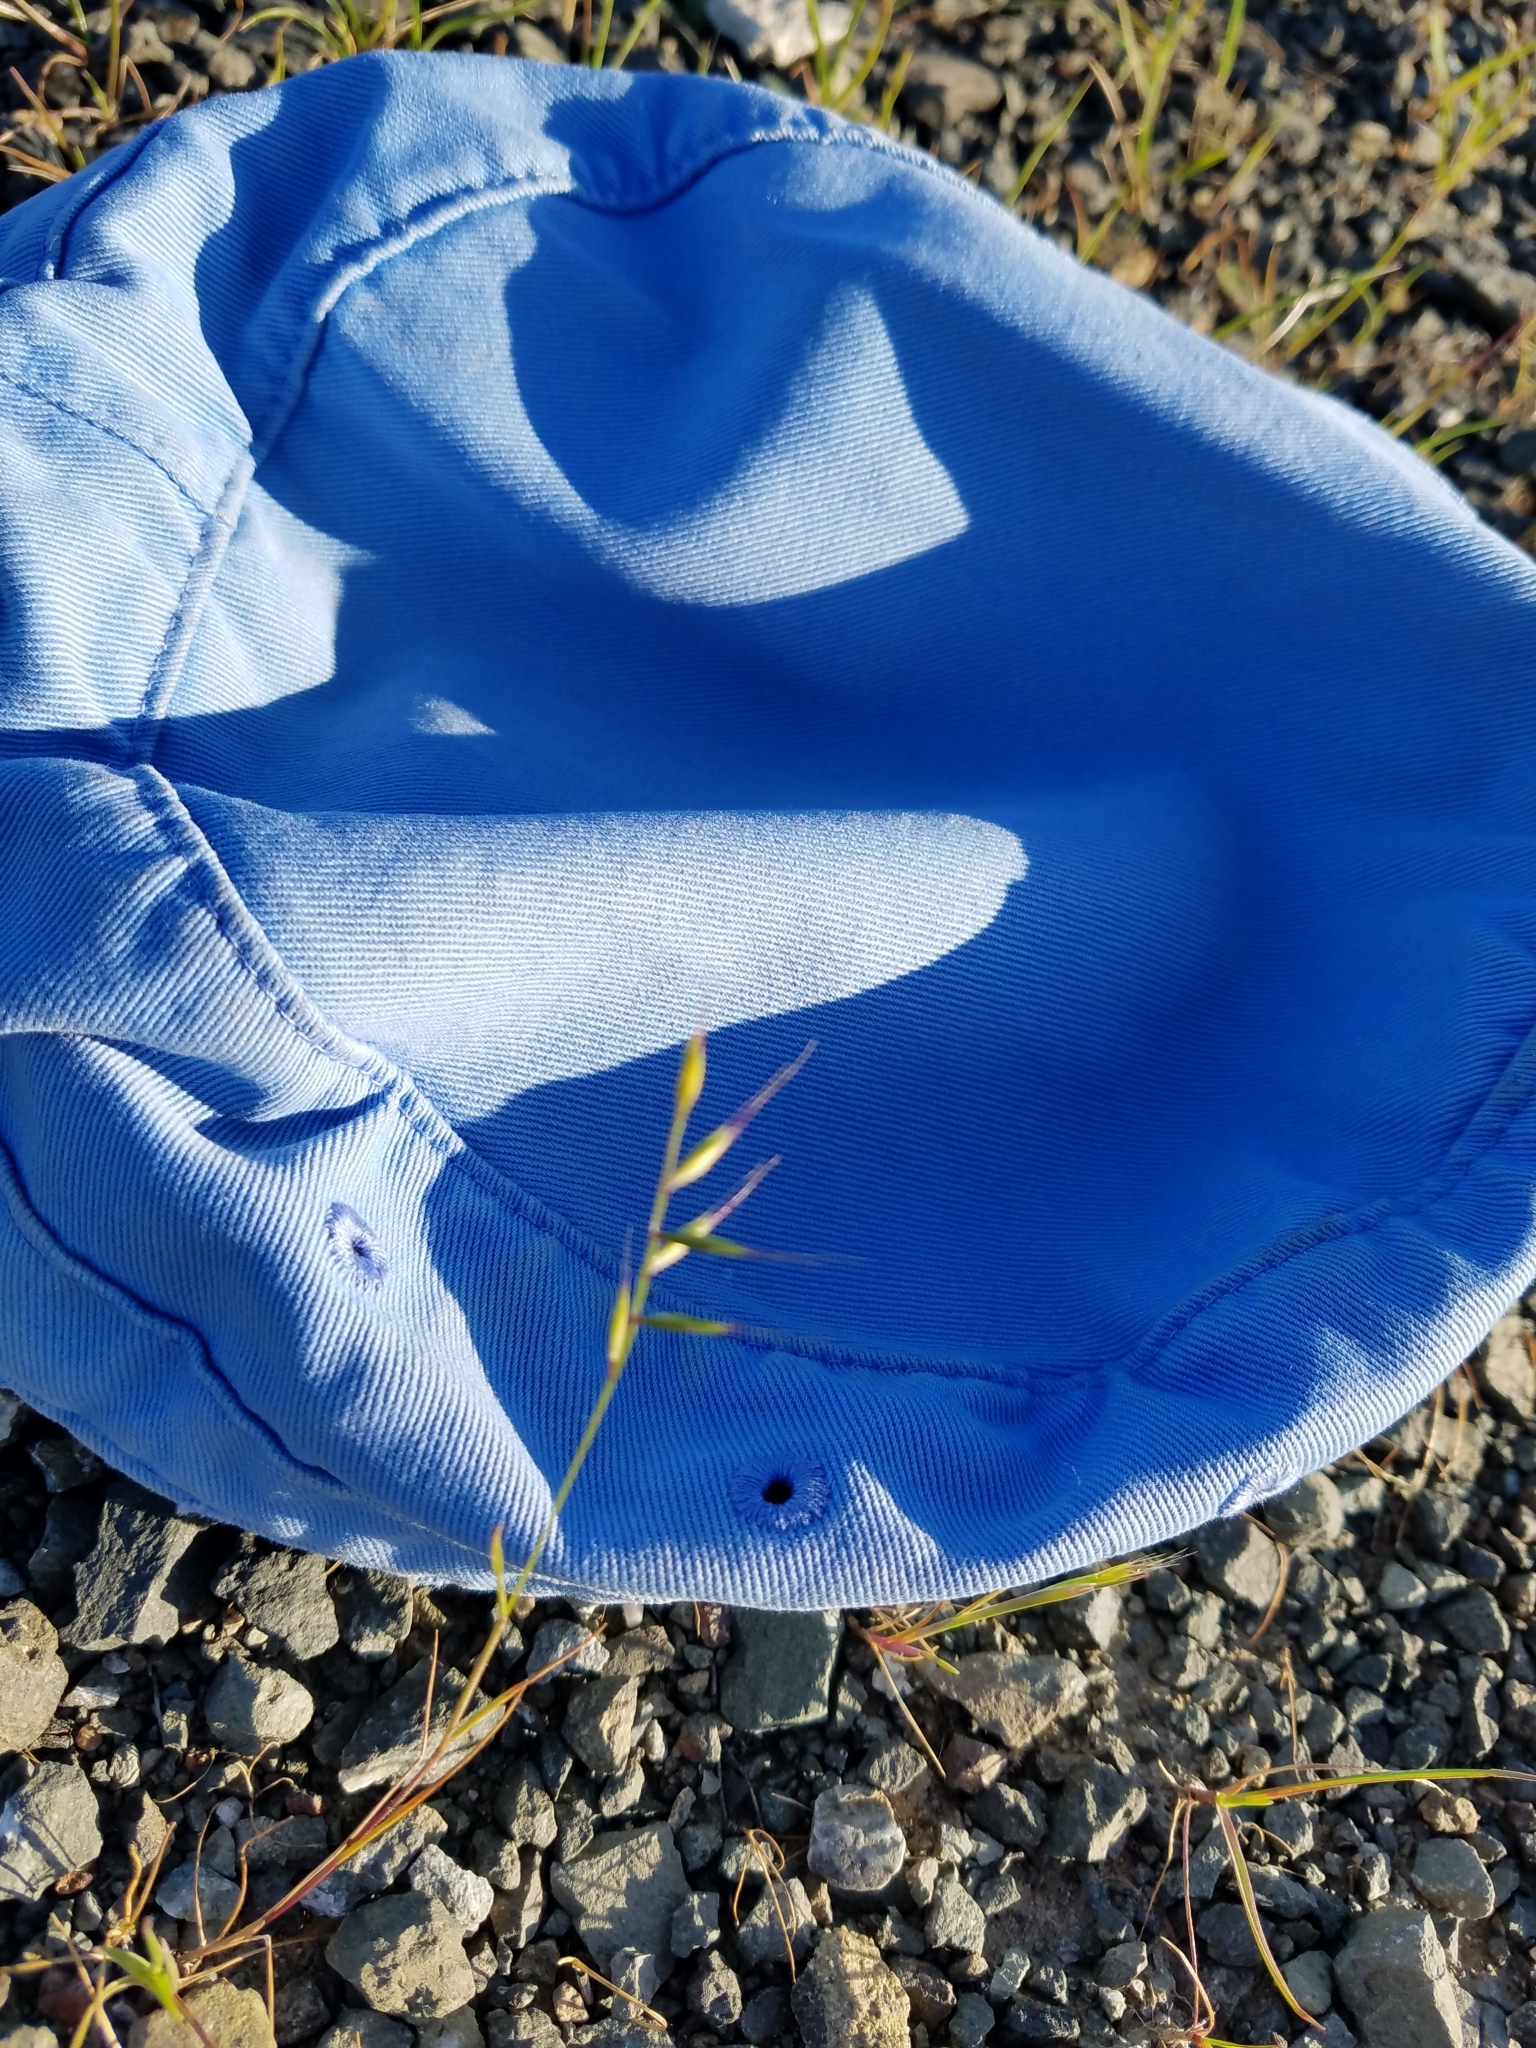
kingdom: Plantae
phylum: Tracheophyta
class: Liliopsida
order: Poales
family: Poaceae
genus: Festuca
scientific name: Festuca microstachys
